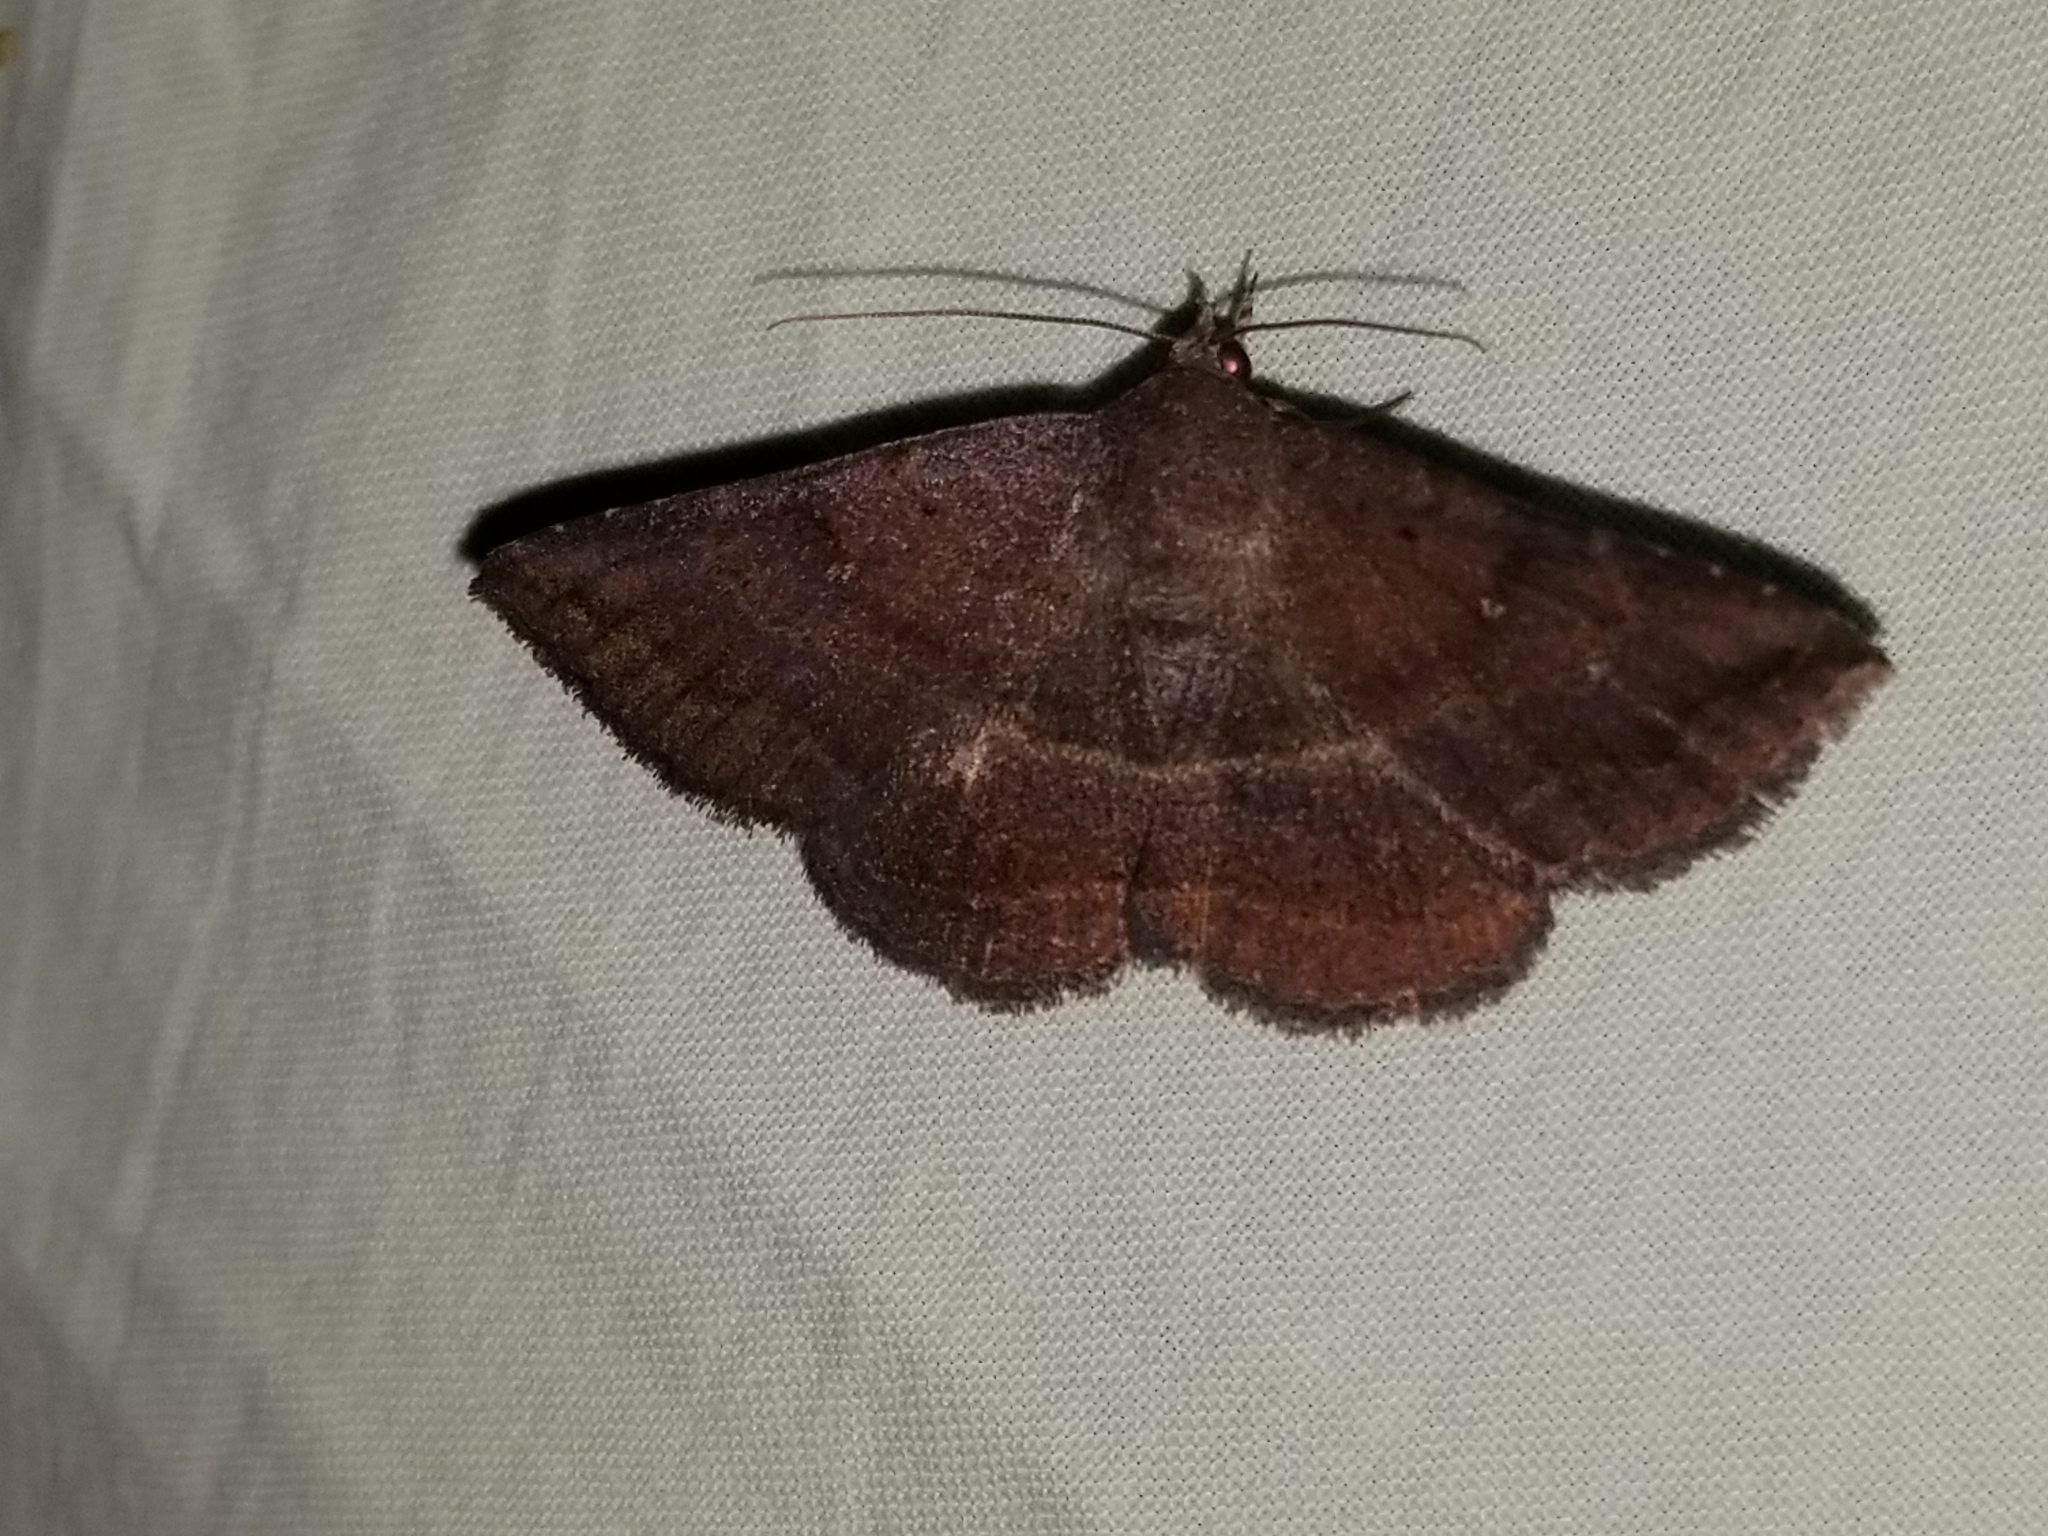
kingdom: Animalia
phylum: Arthropoda
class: Insecta
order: Lepidoptera
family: Erebidae
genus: Lesmone
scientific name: Lesmone detrahens
